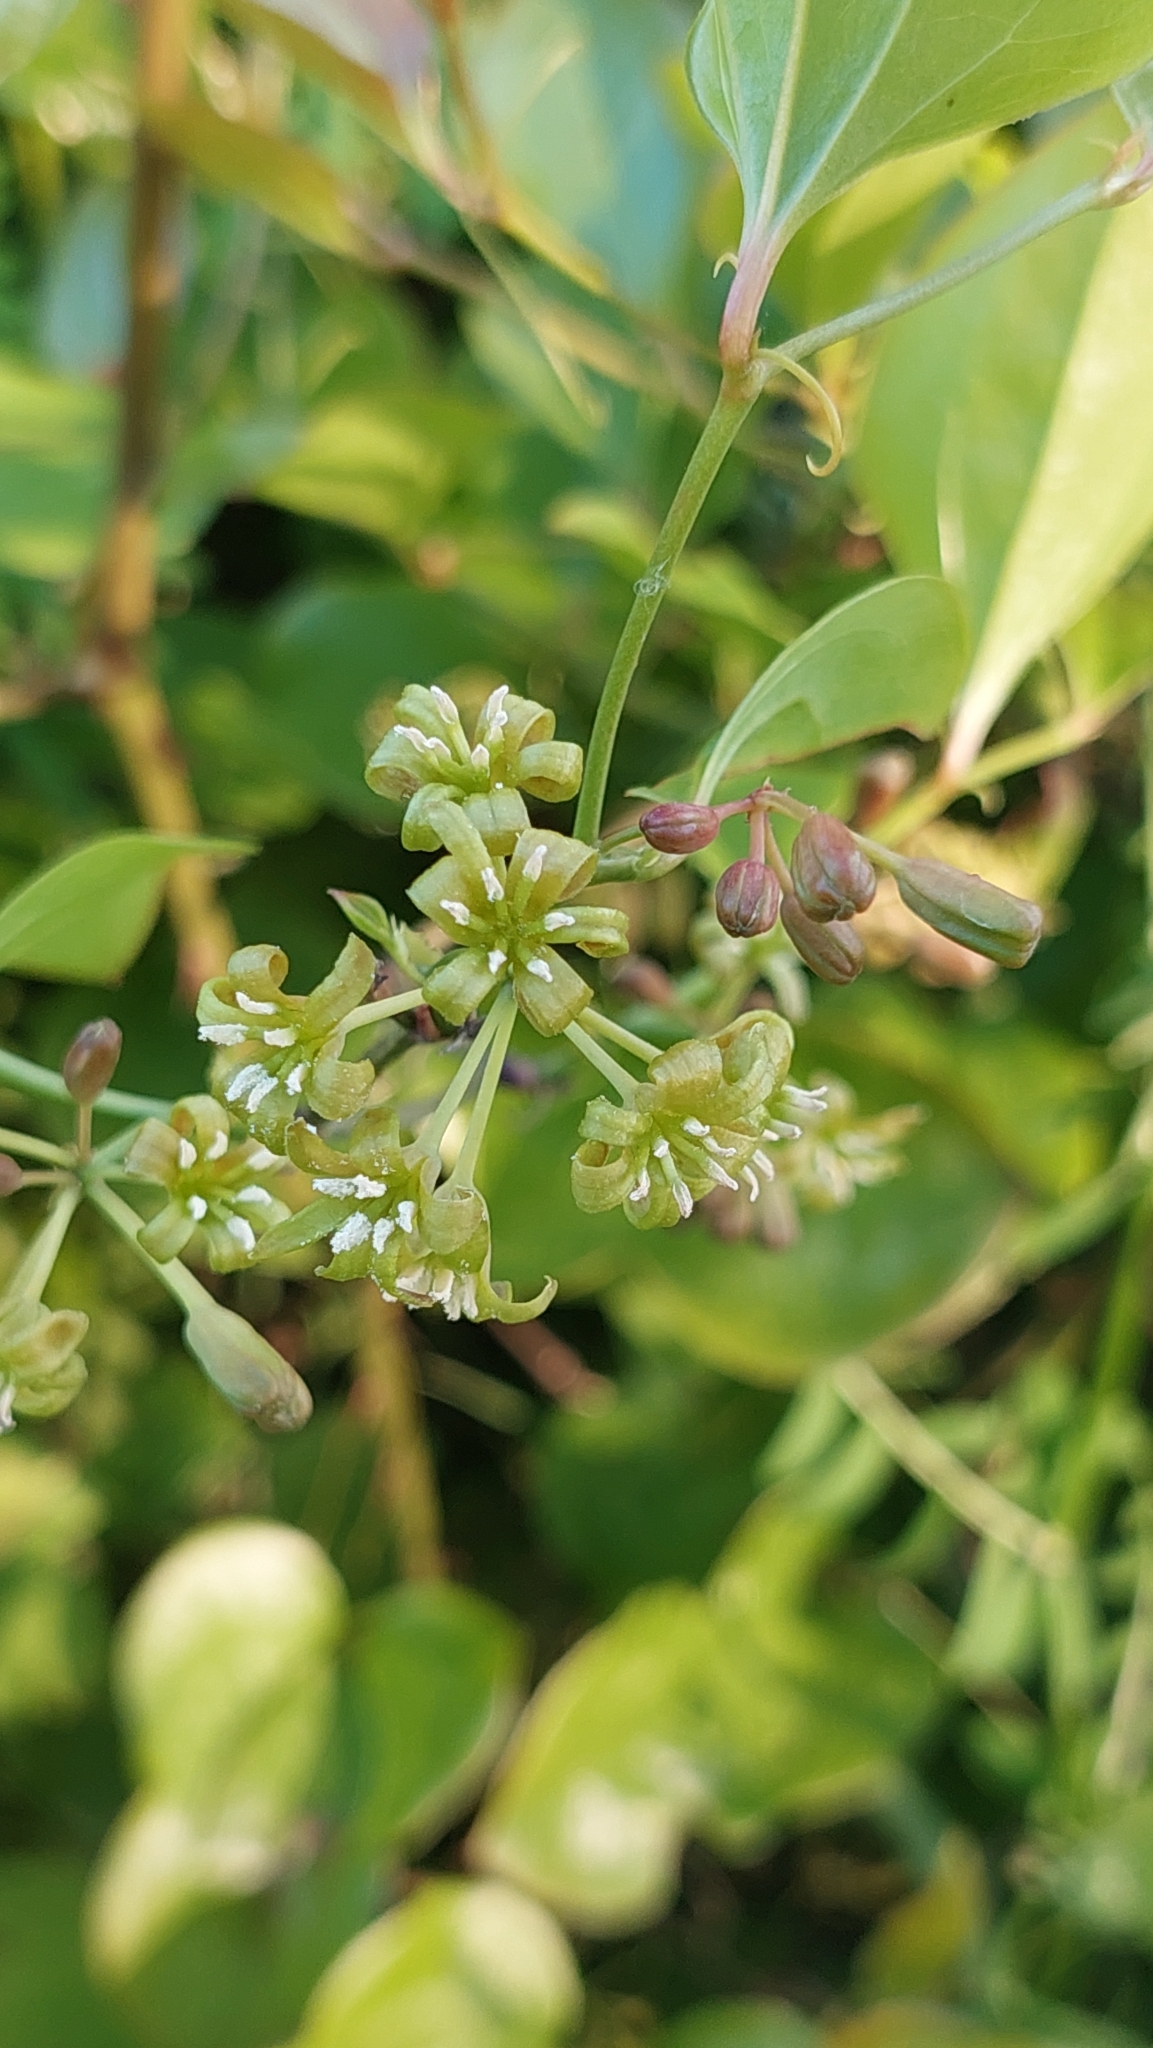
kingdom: Plantae
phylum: Tracheophyta
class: Liliopsida
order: Liliales
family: Smilacaceae
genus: Smilax
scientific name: Smilax excelsa
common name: Larger smilax
